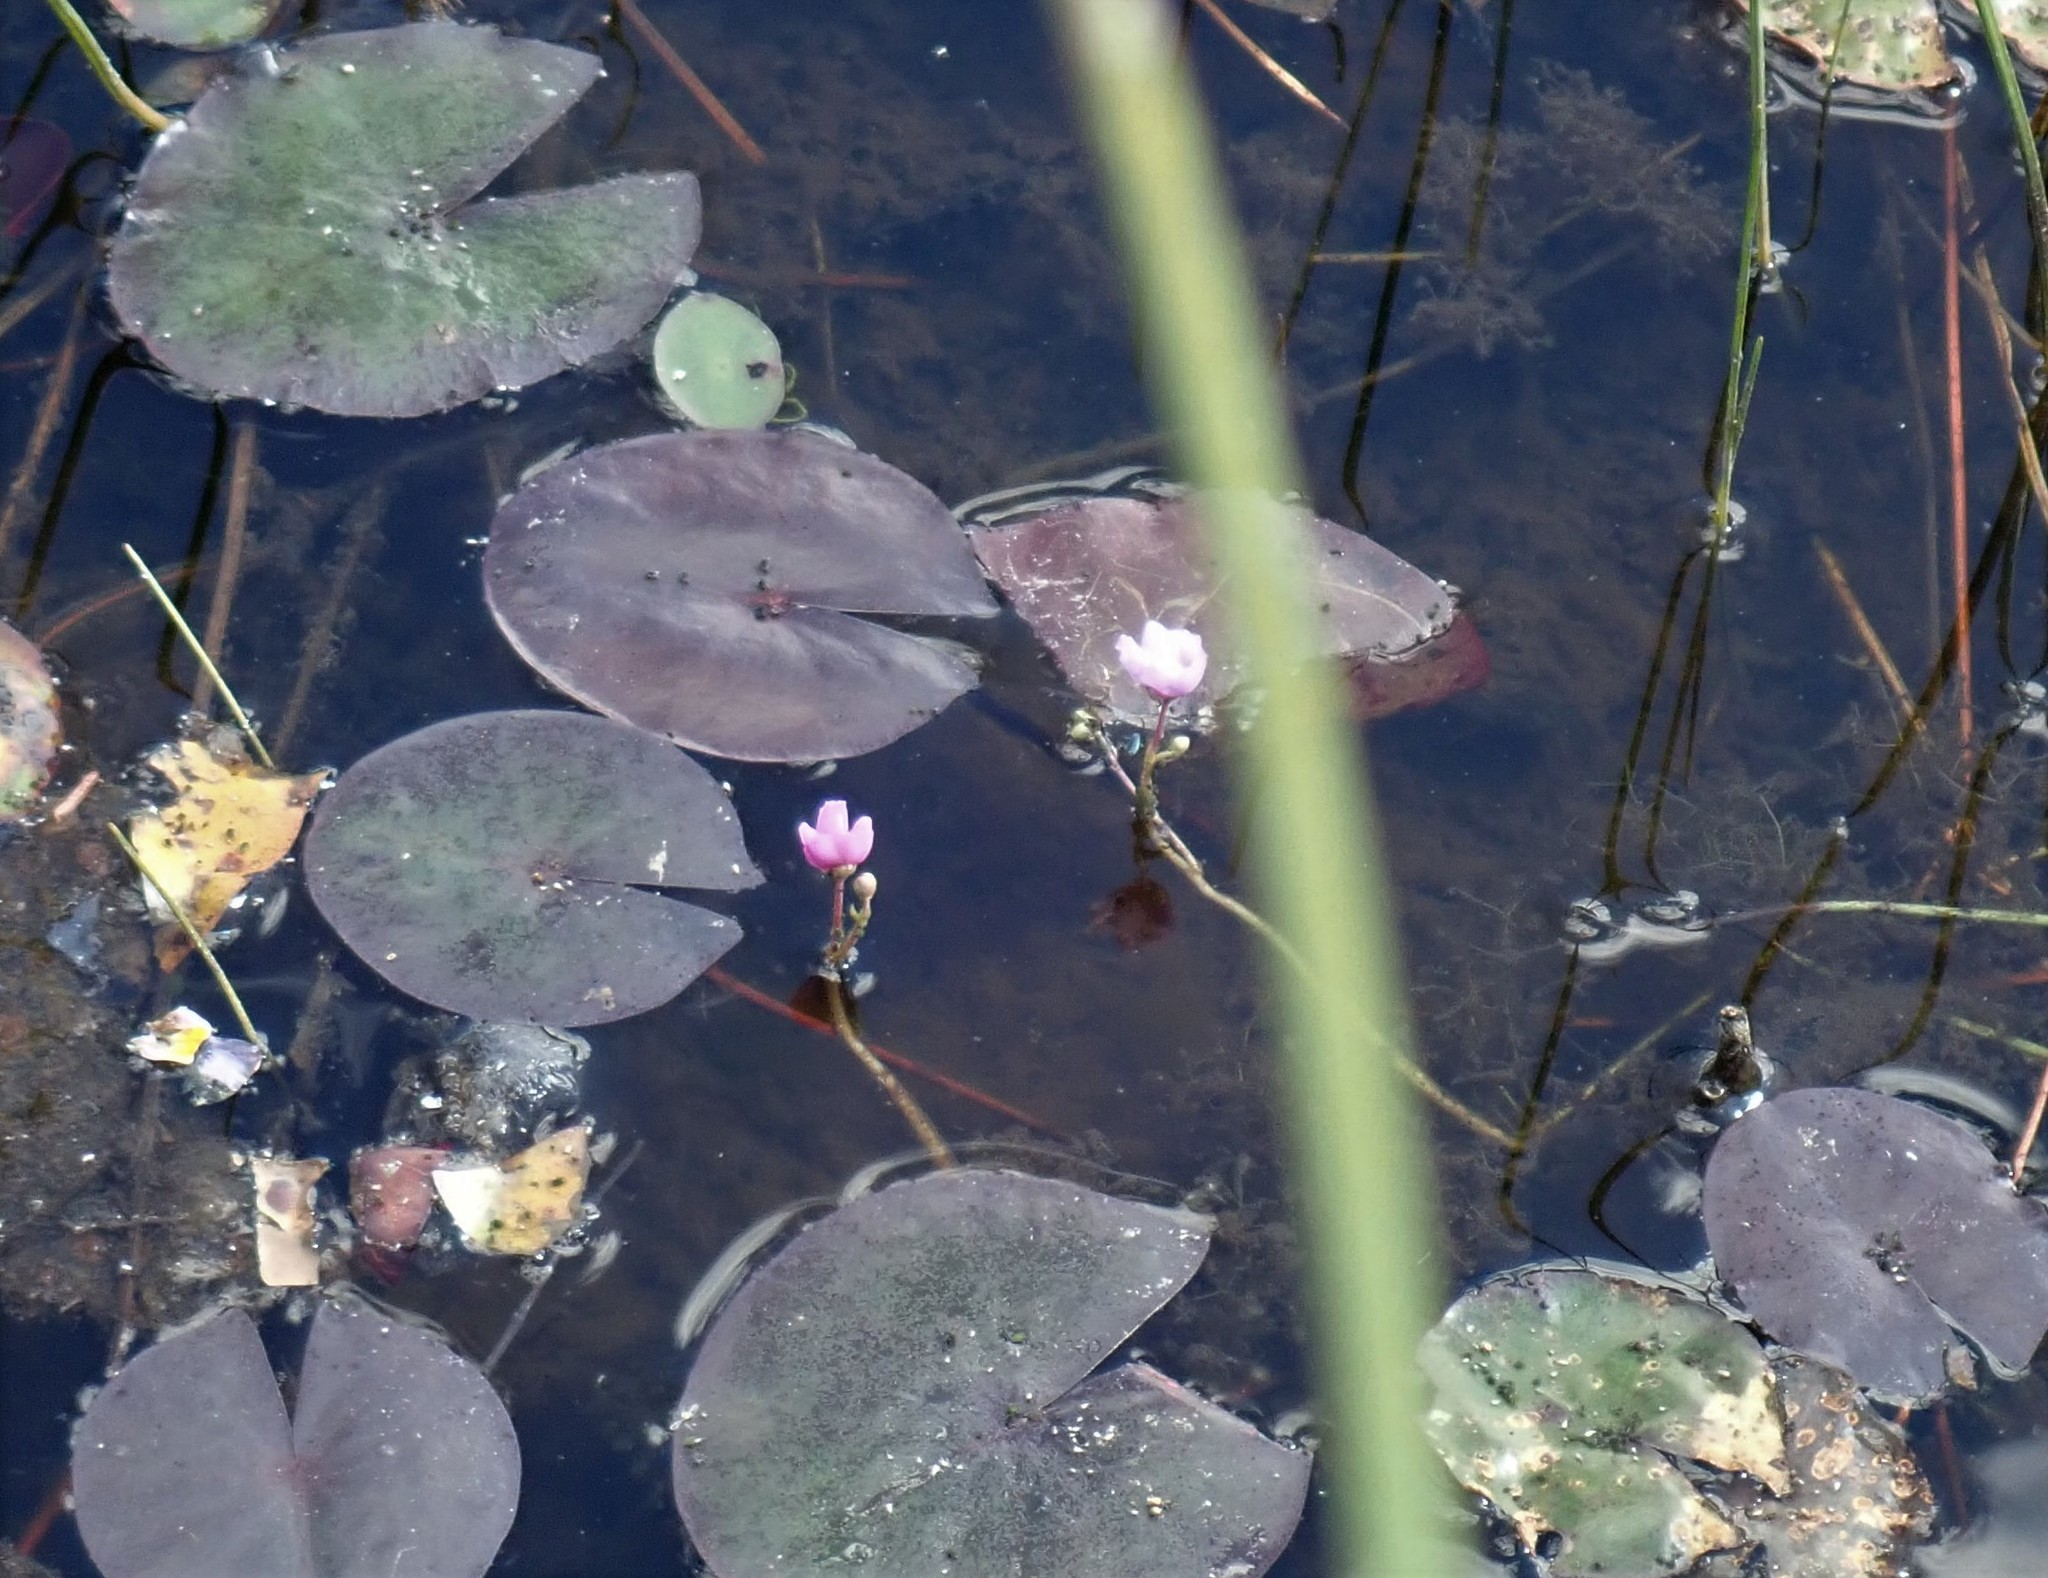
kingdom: Plantae
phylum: Tracheophyta
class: Magnoliopsida
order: Lamiales
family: Lentibulariaceae
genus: Utricularia
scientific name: Utricularia purpurea
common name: Eastern purple bladderwort
